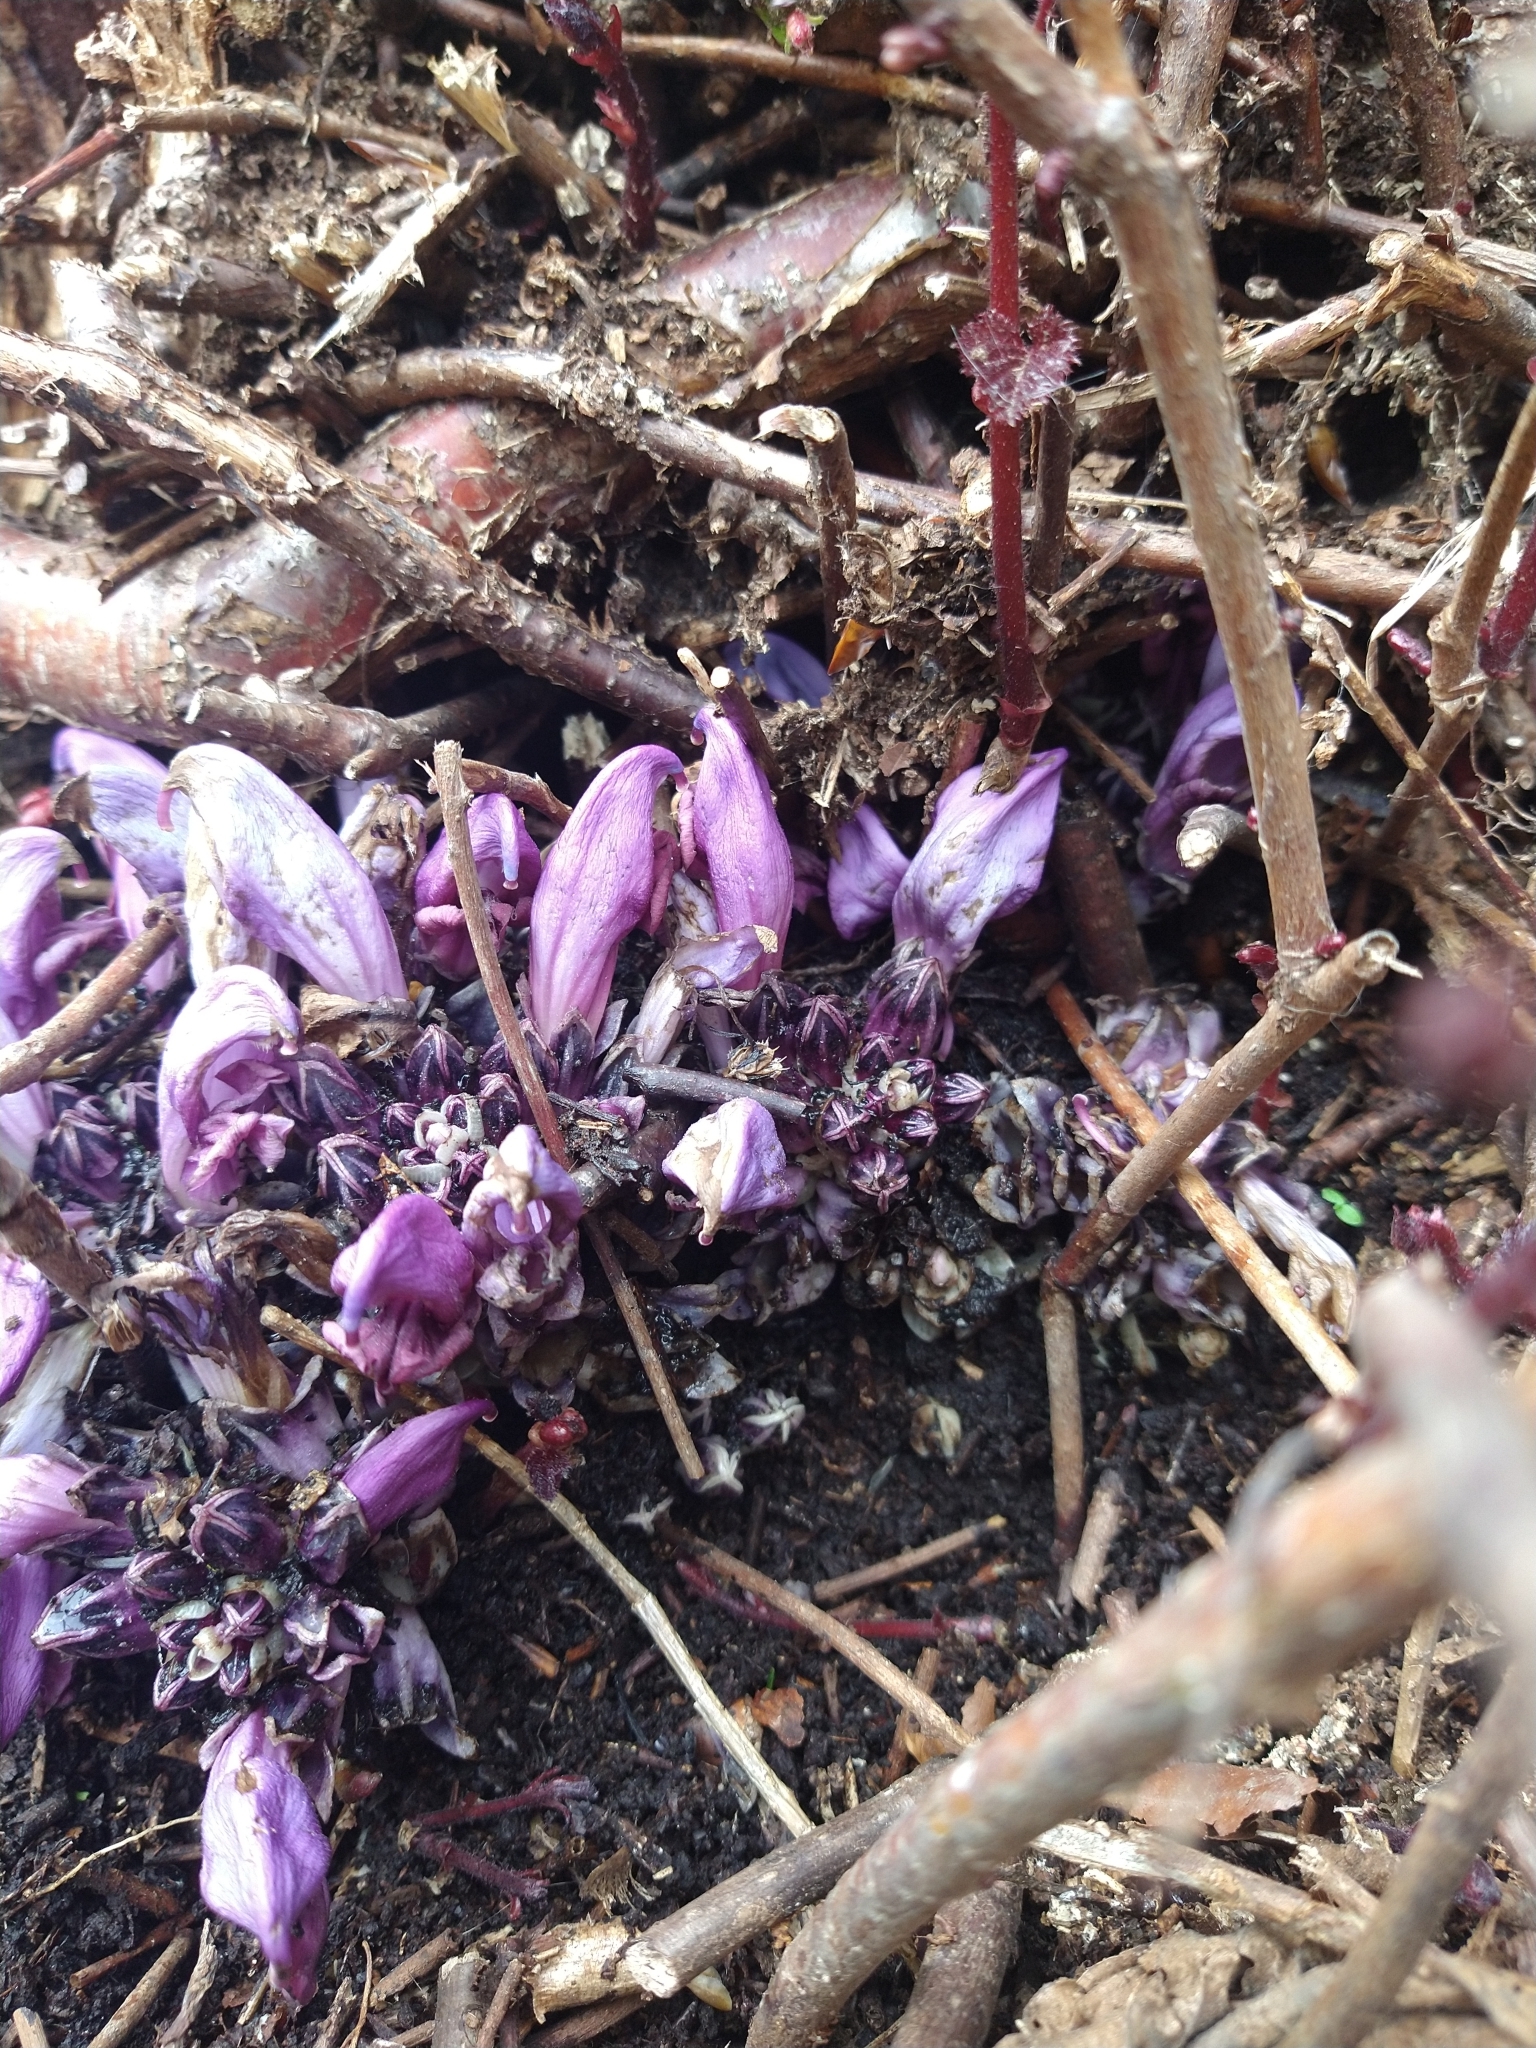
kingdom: Plantae
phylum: Tracheophyta
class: Magnoliopsida
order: Lamiales
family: Orobanchaceae
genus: Lathraea
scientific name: Lathraea clandestina
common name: Purple toothwort
